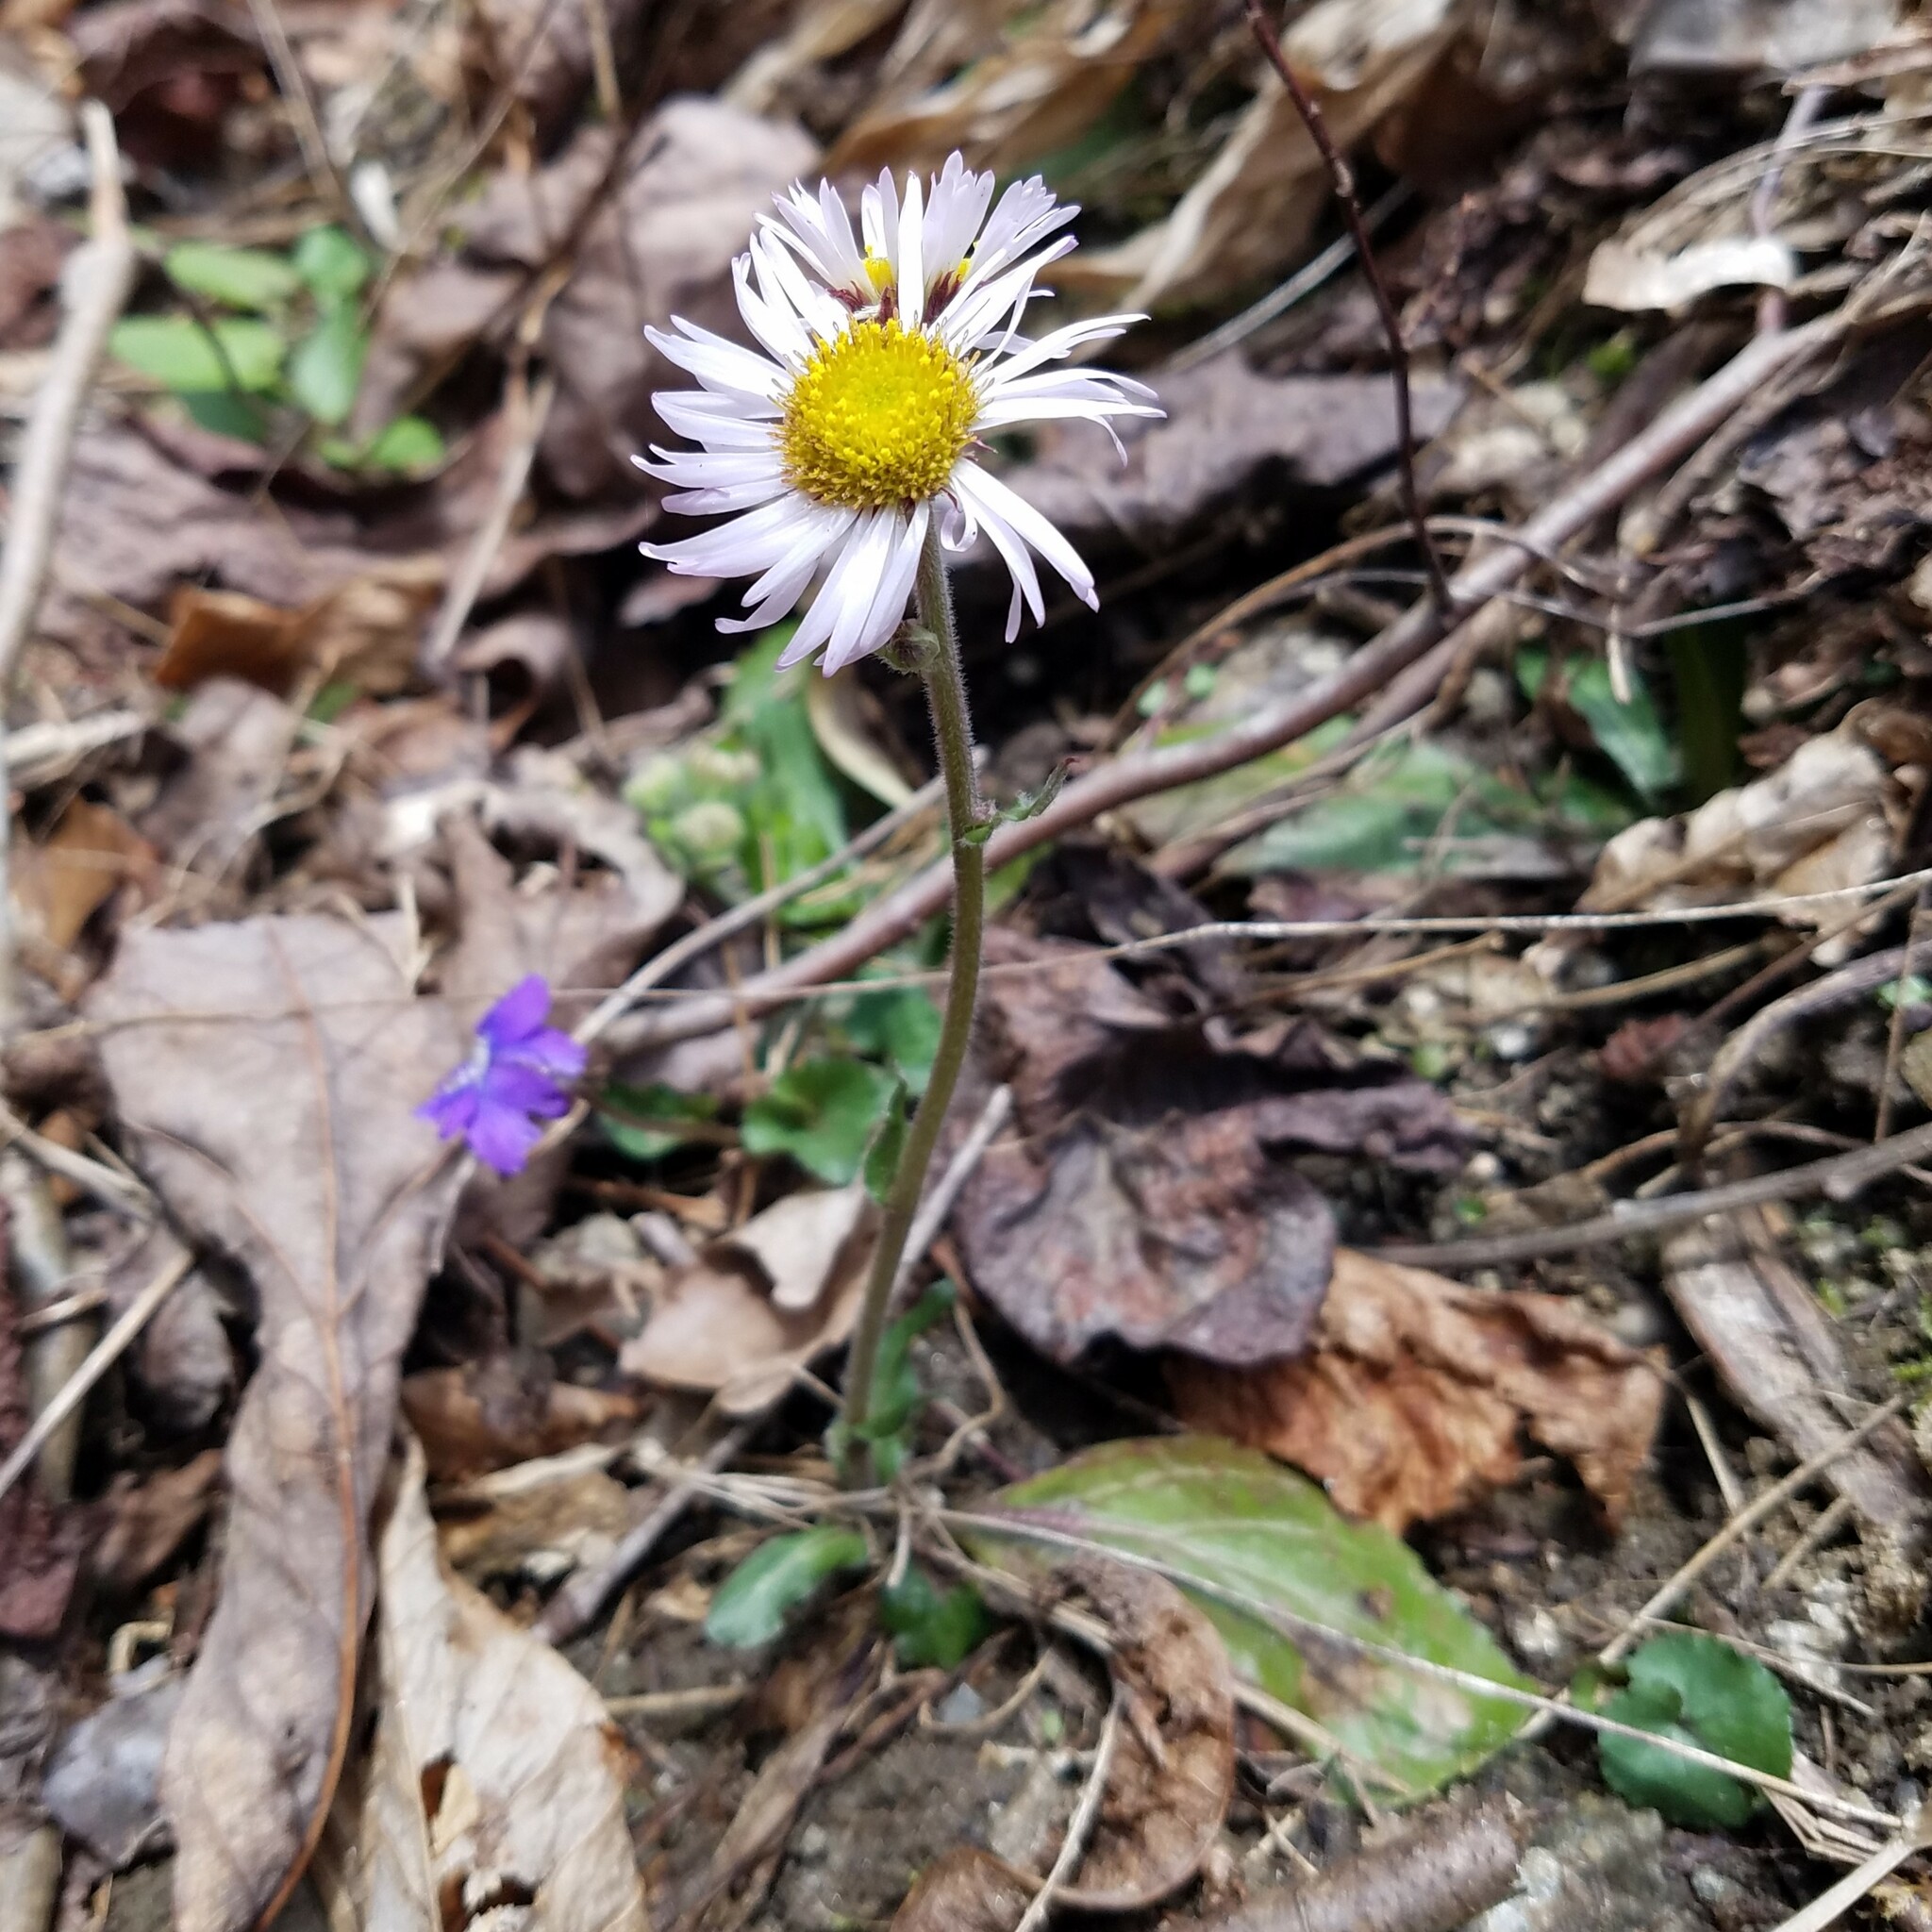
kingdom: Plantae
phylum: Tracheophyta
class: Magnoliopsida
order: Asterales
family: Asteraceae
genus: Erigeron
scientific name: Erigeron pulchellus
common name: Hairy fleabane
